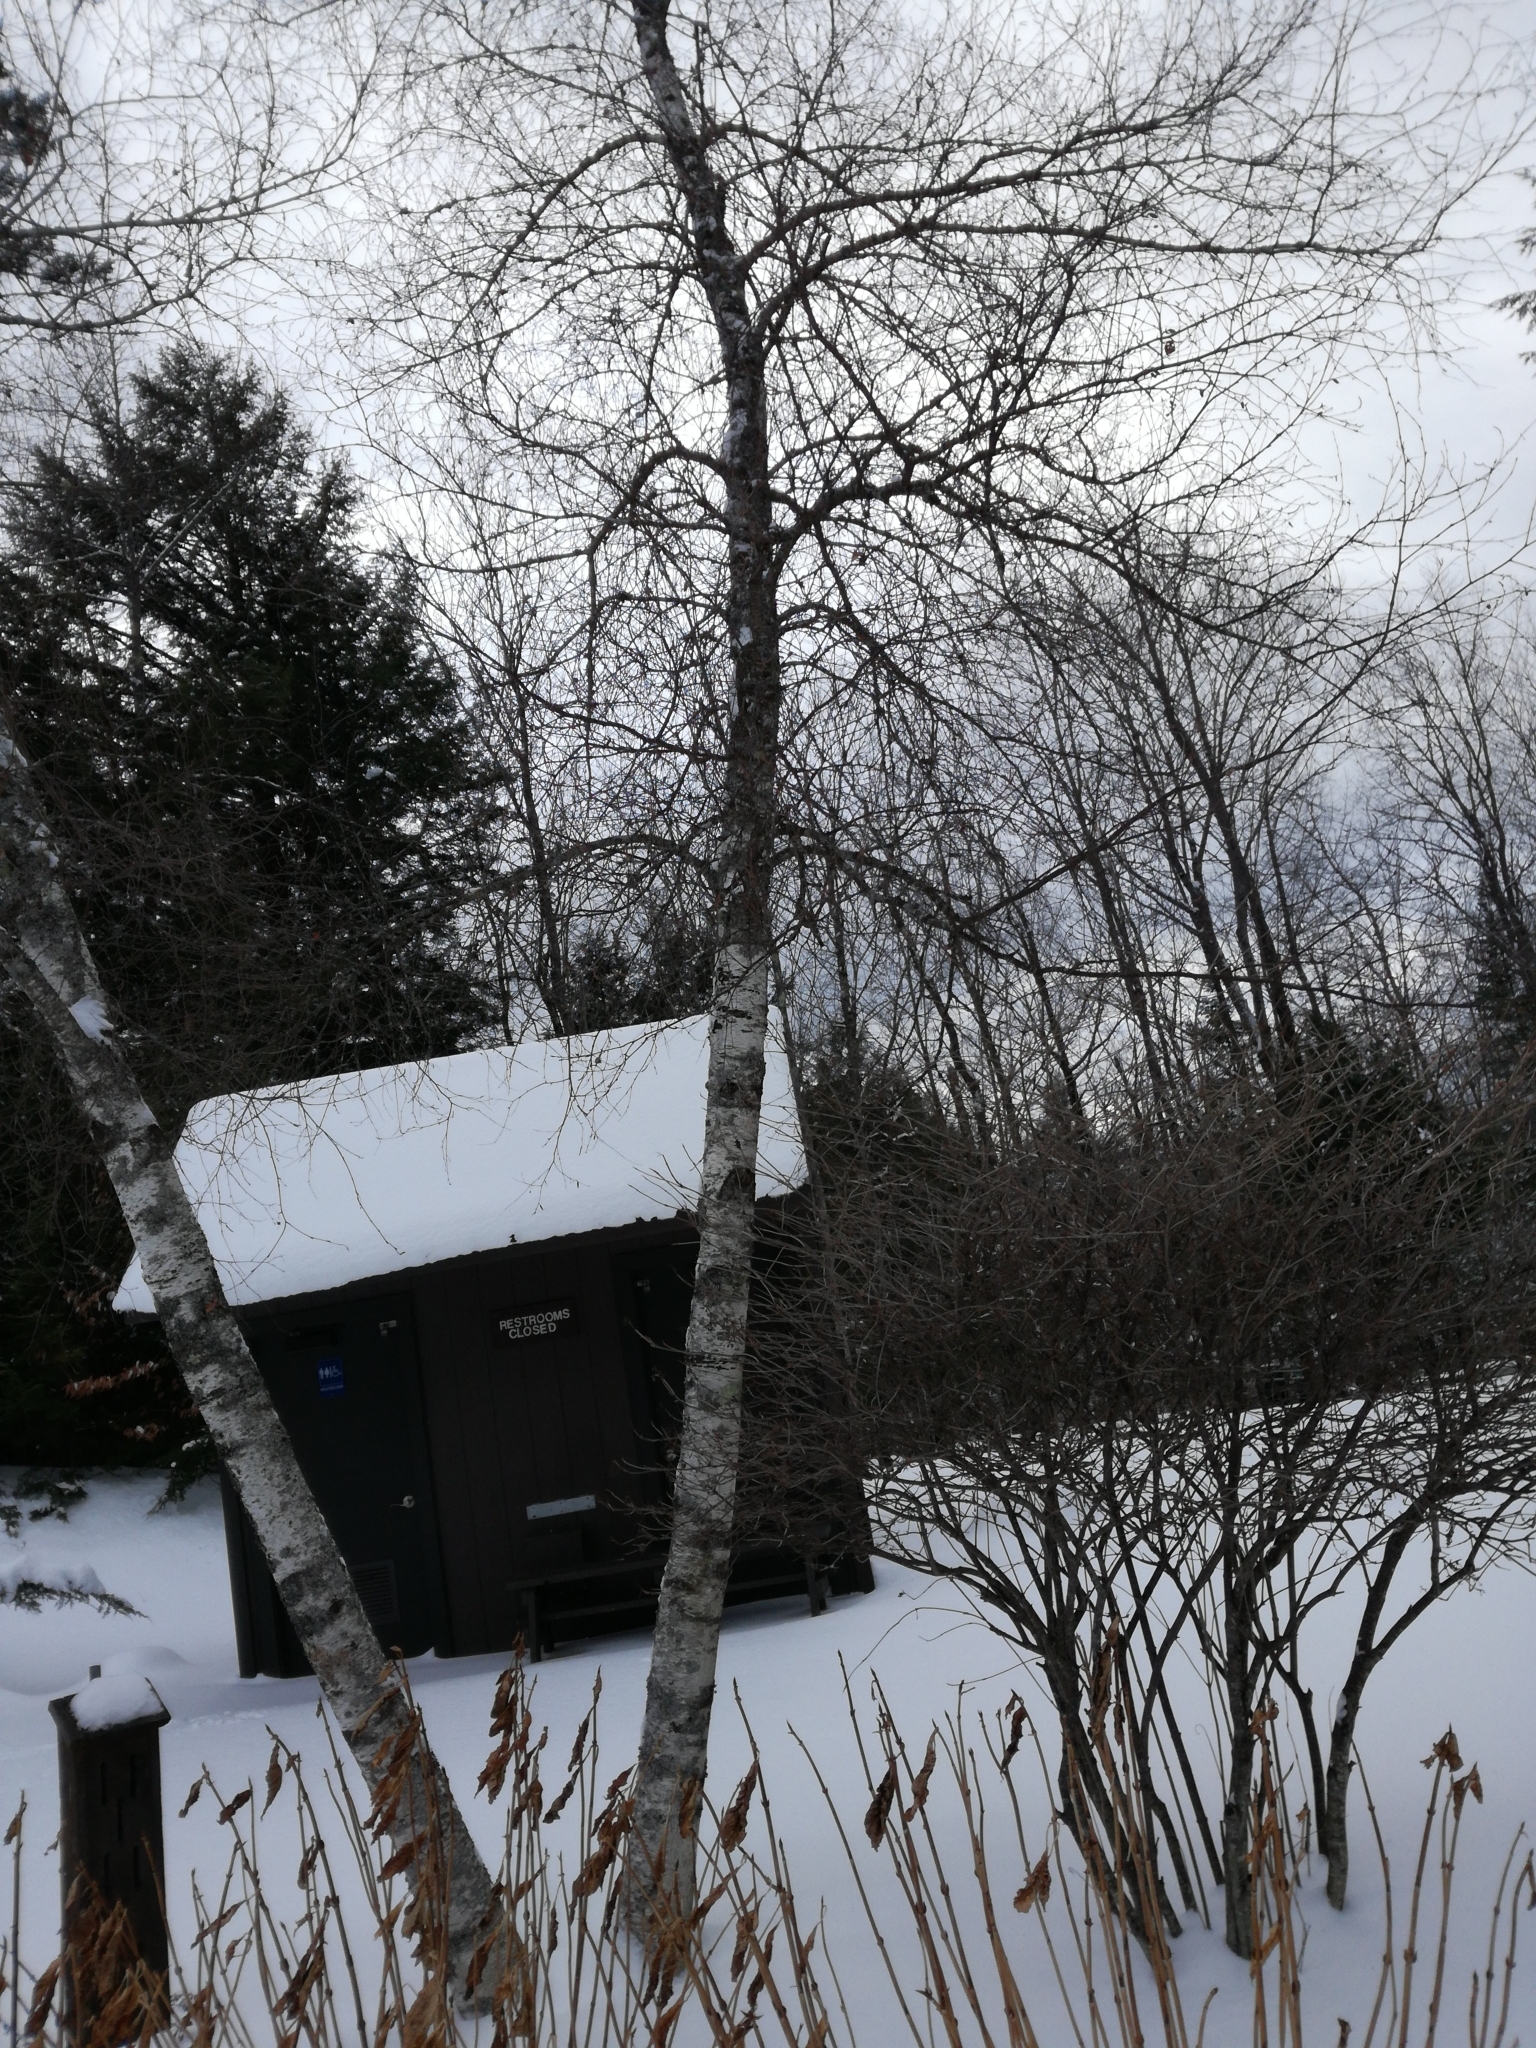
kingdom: Plantae
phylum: Tracheophyta
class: Magnoliopsida
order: Fagales
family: Betulaceae
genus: Betula
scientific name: Betula populifolia
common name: Fire birch
